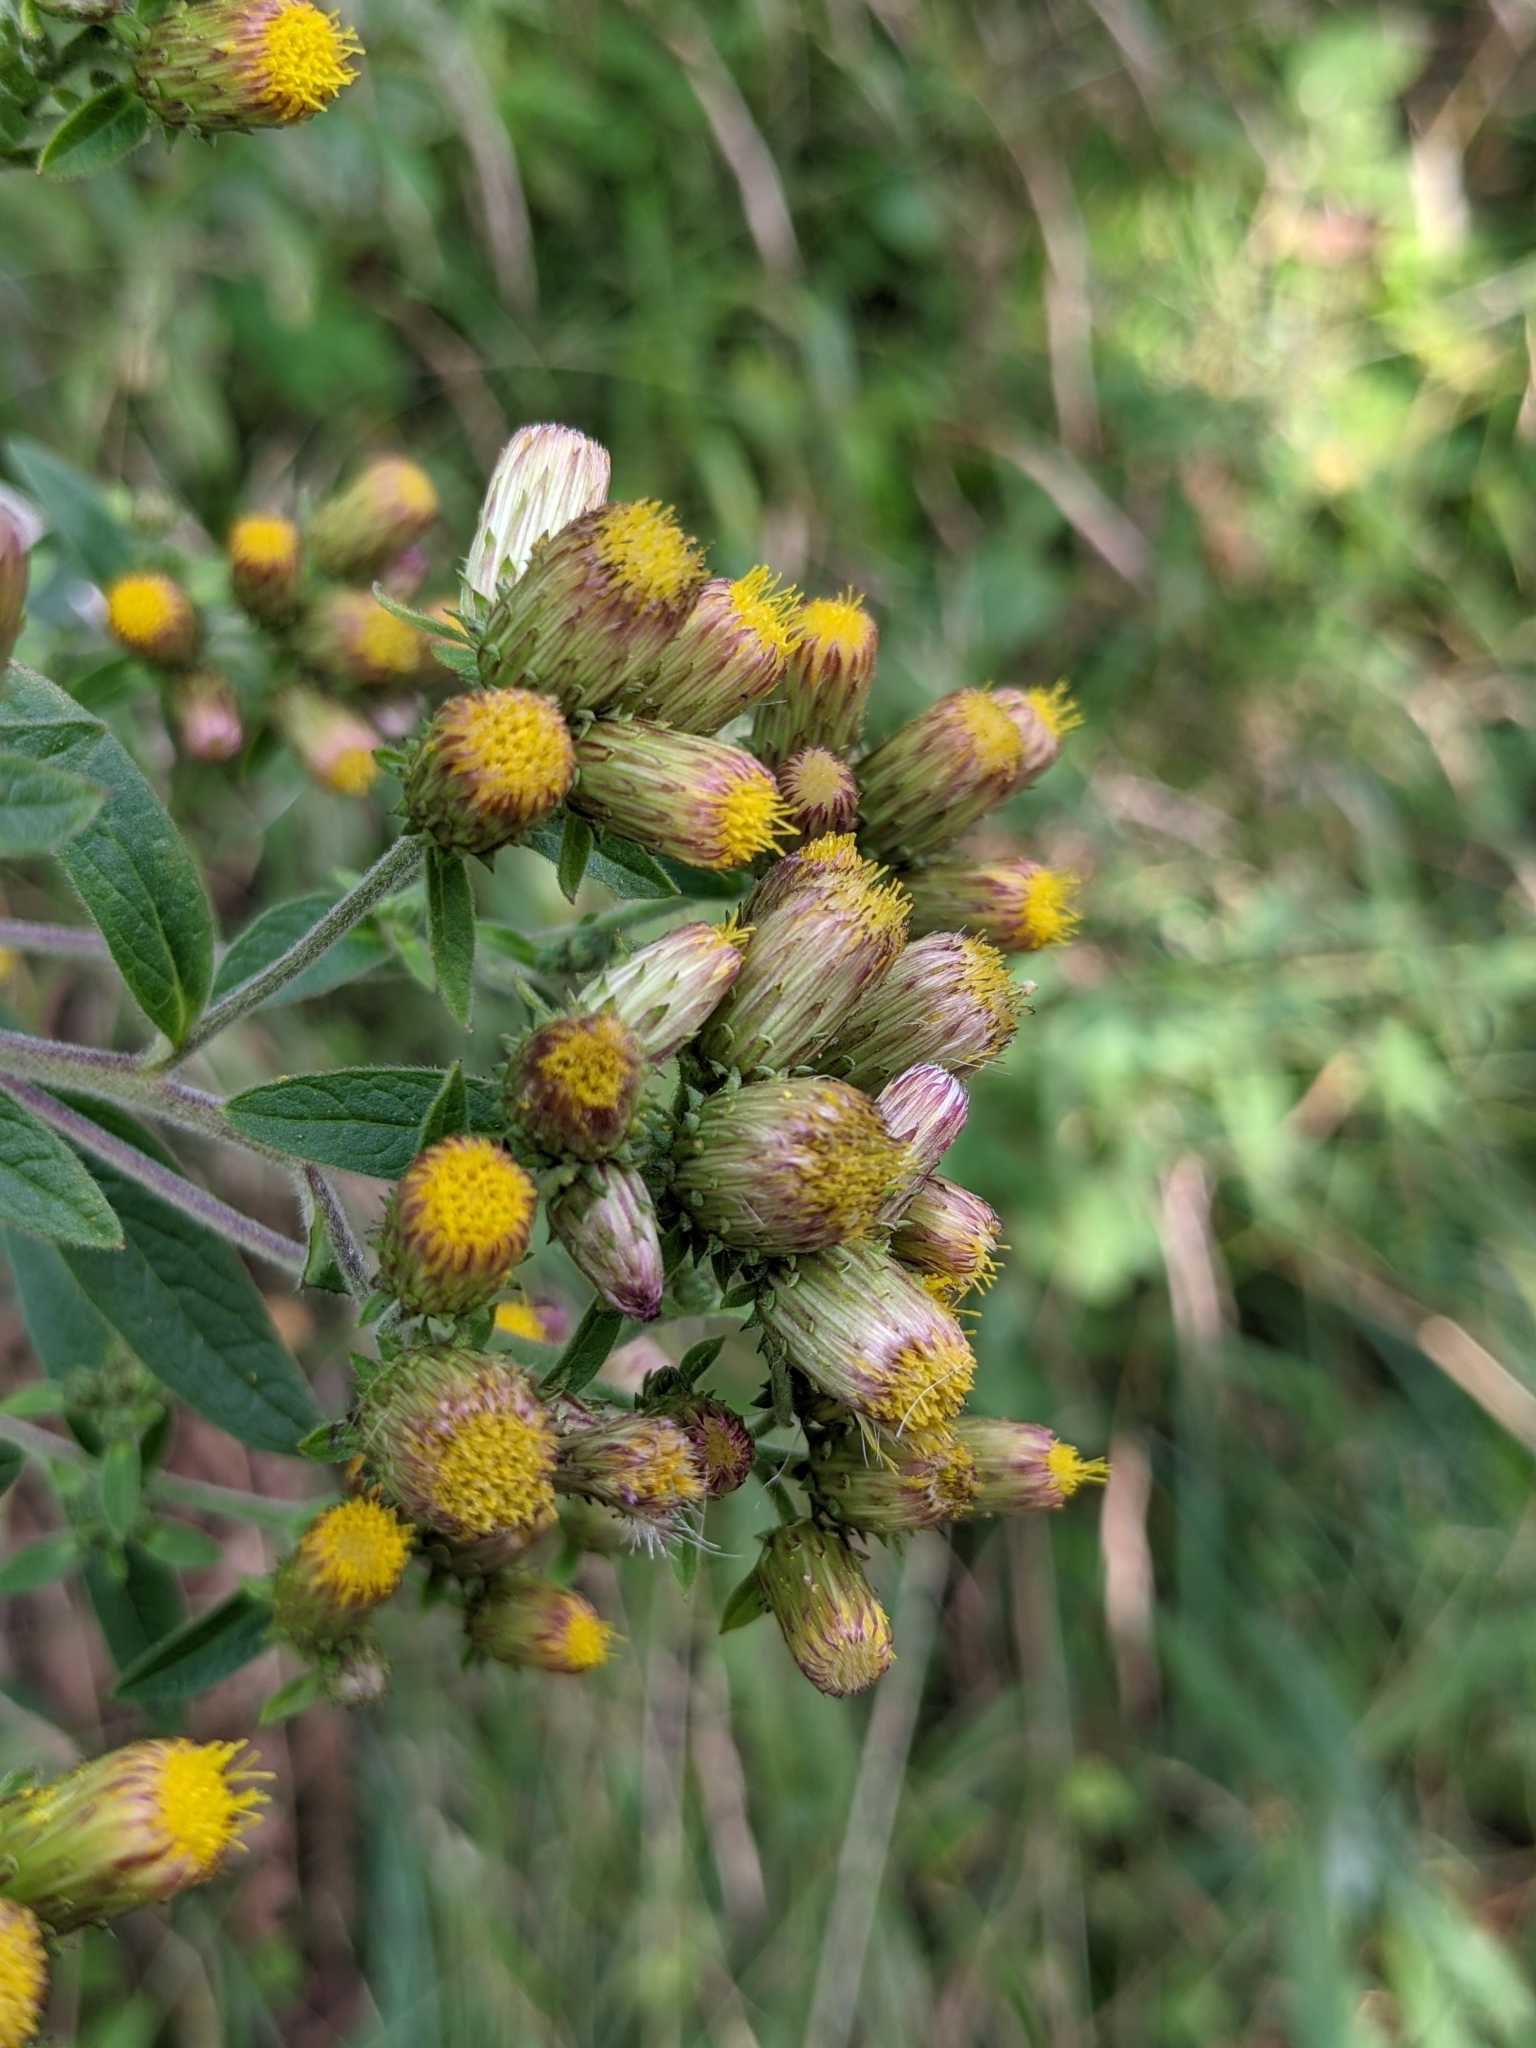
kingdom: Plantae
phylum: Tracheophyta
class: Magnoliopsida
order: Asterales
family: Asteraceae
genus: Pentanema
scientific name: Pentanema squarrosum
